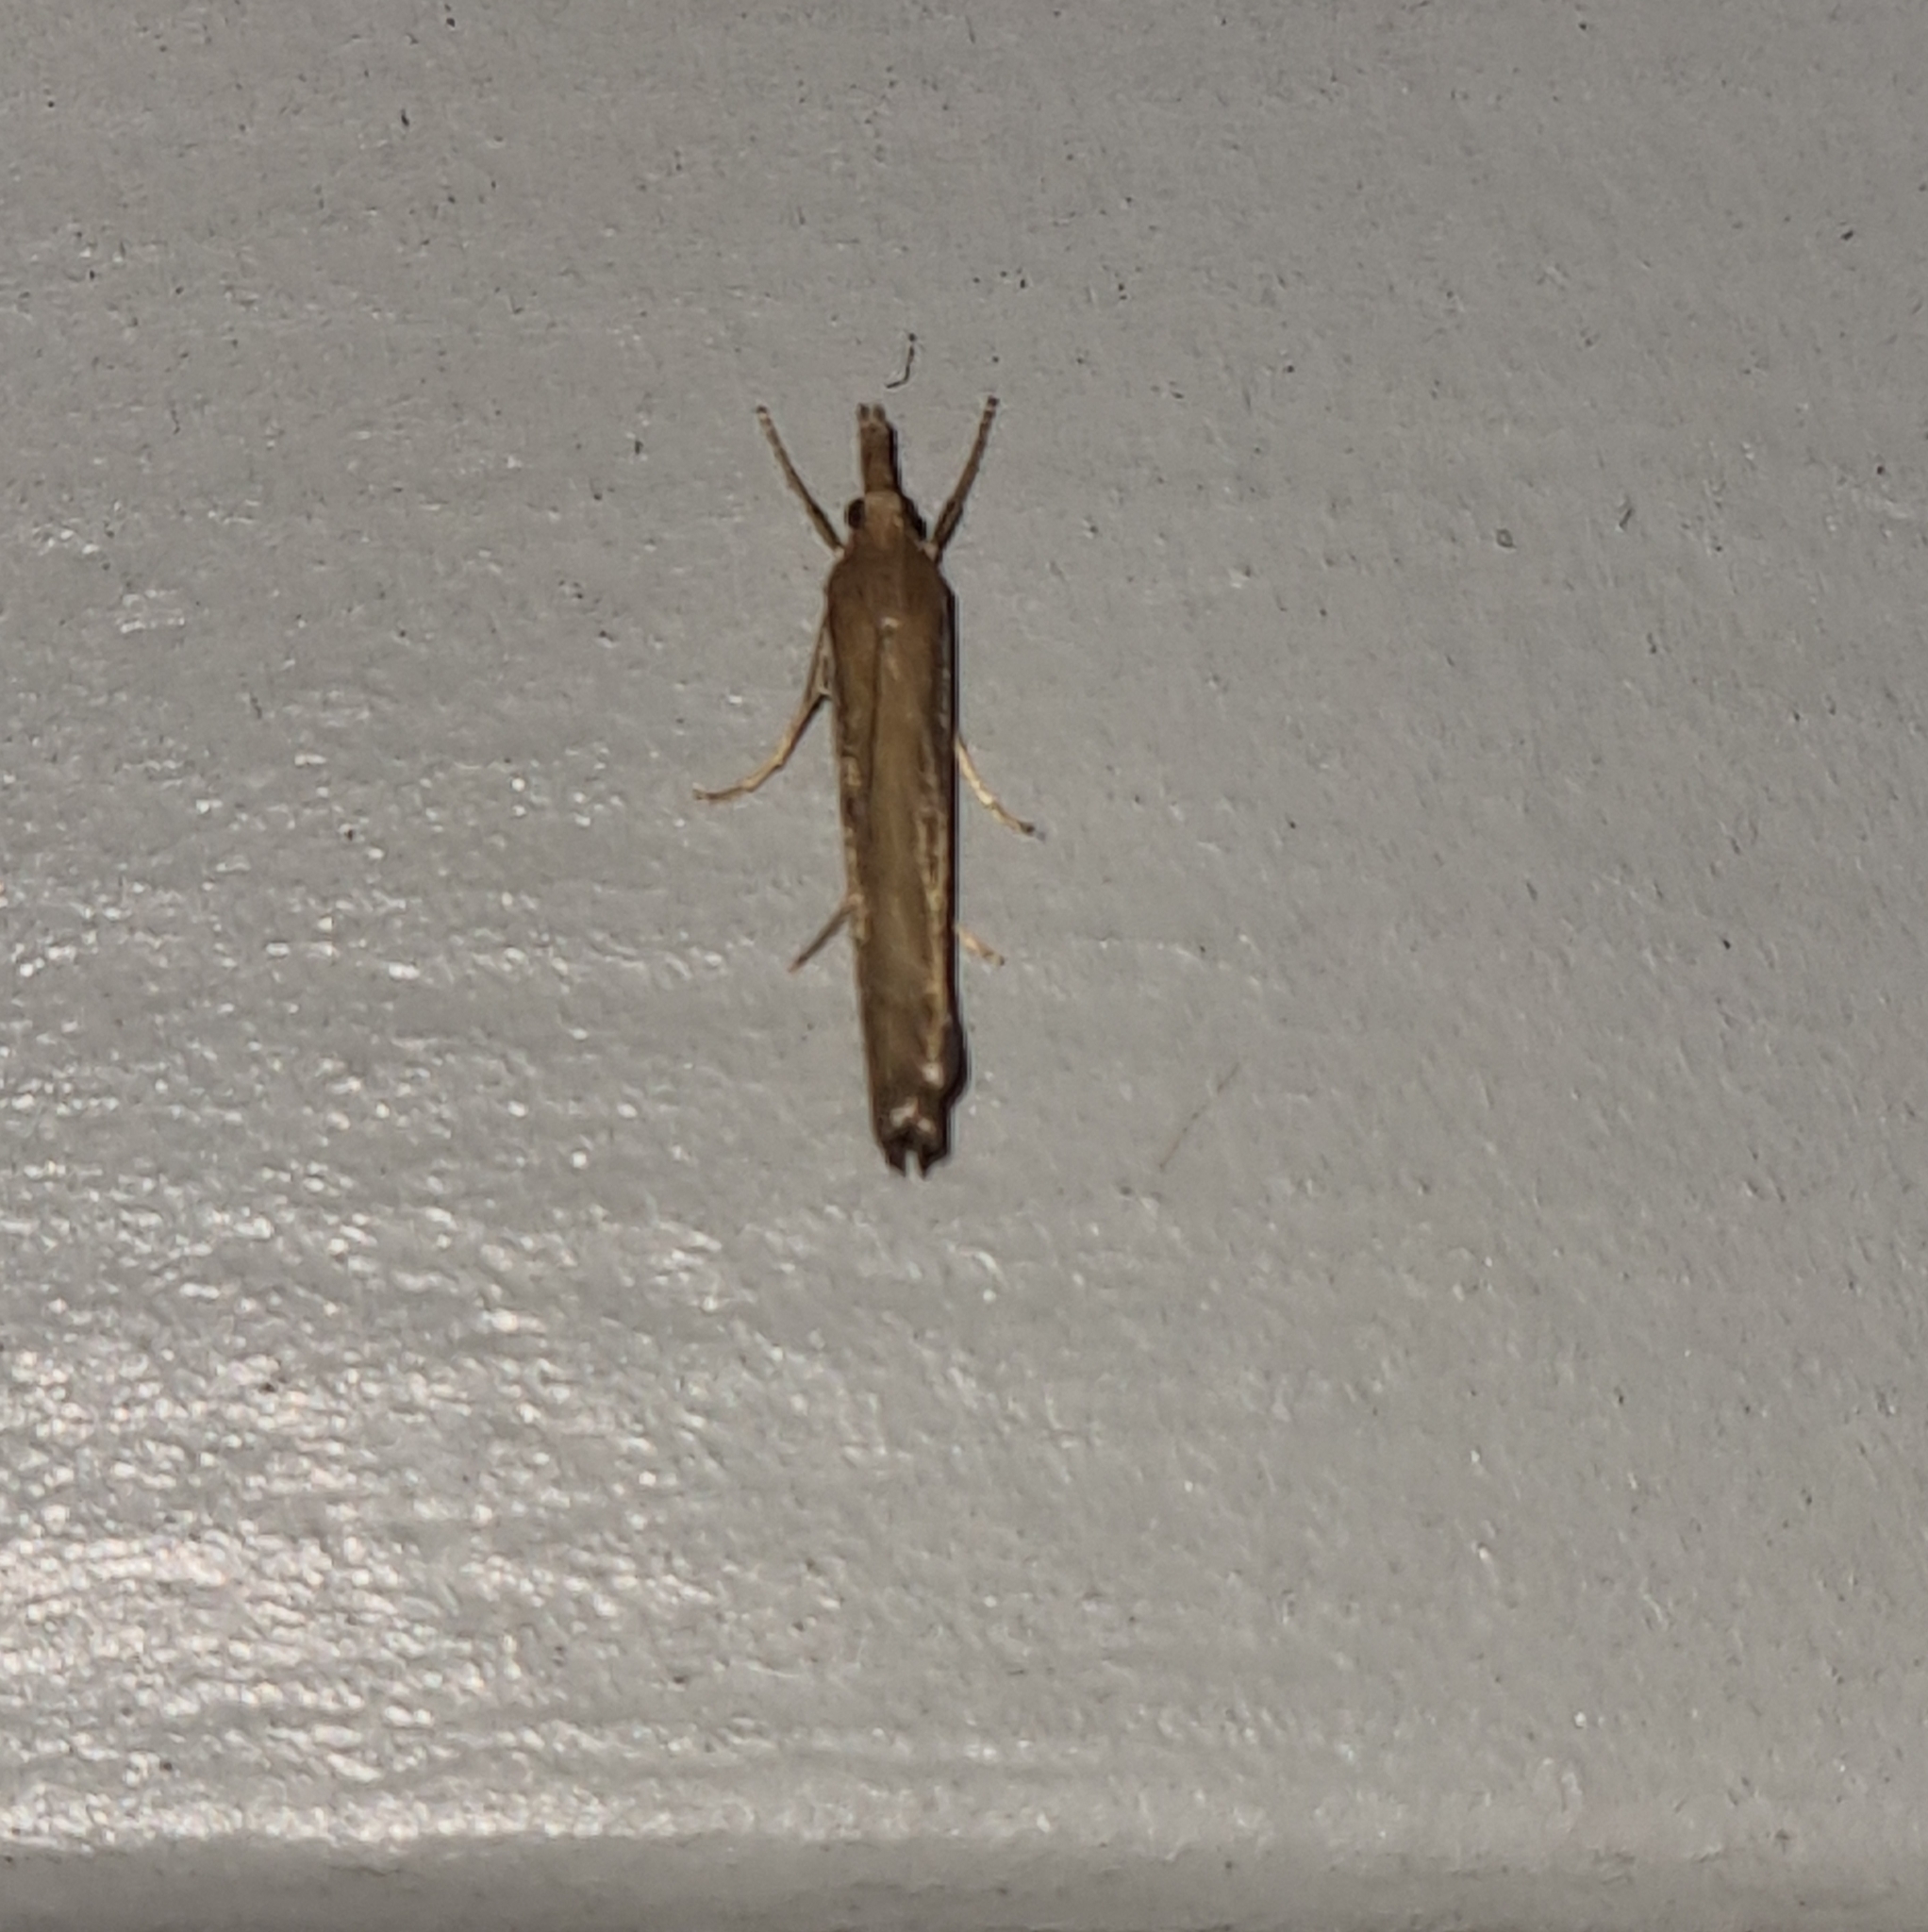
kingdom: Animalia
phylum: Arthropoda
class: Insecta
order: Lepidoptera
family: Crambidae
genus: Orocrambus
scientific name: Orocrambus flexuosellus
